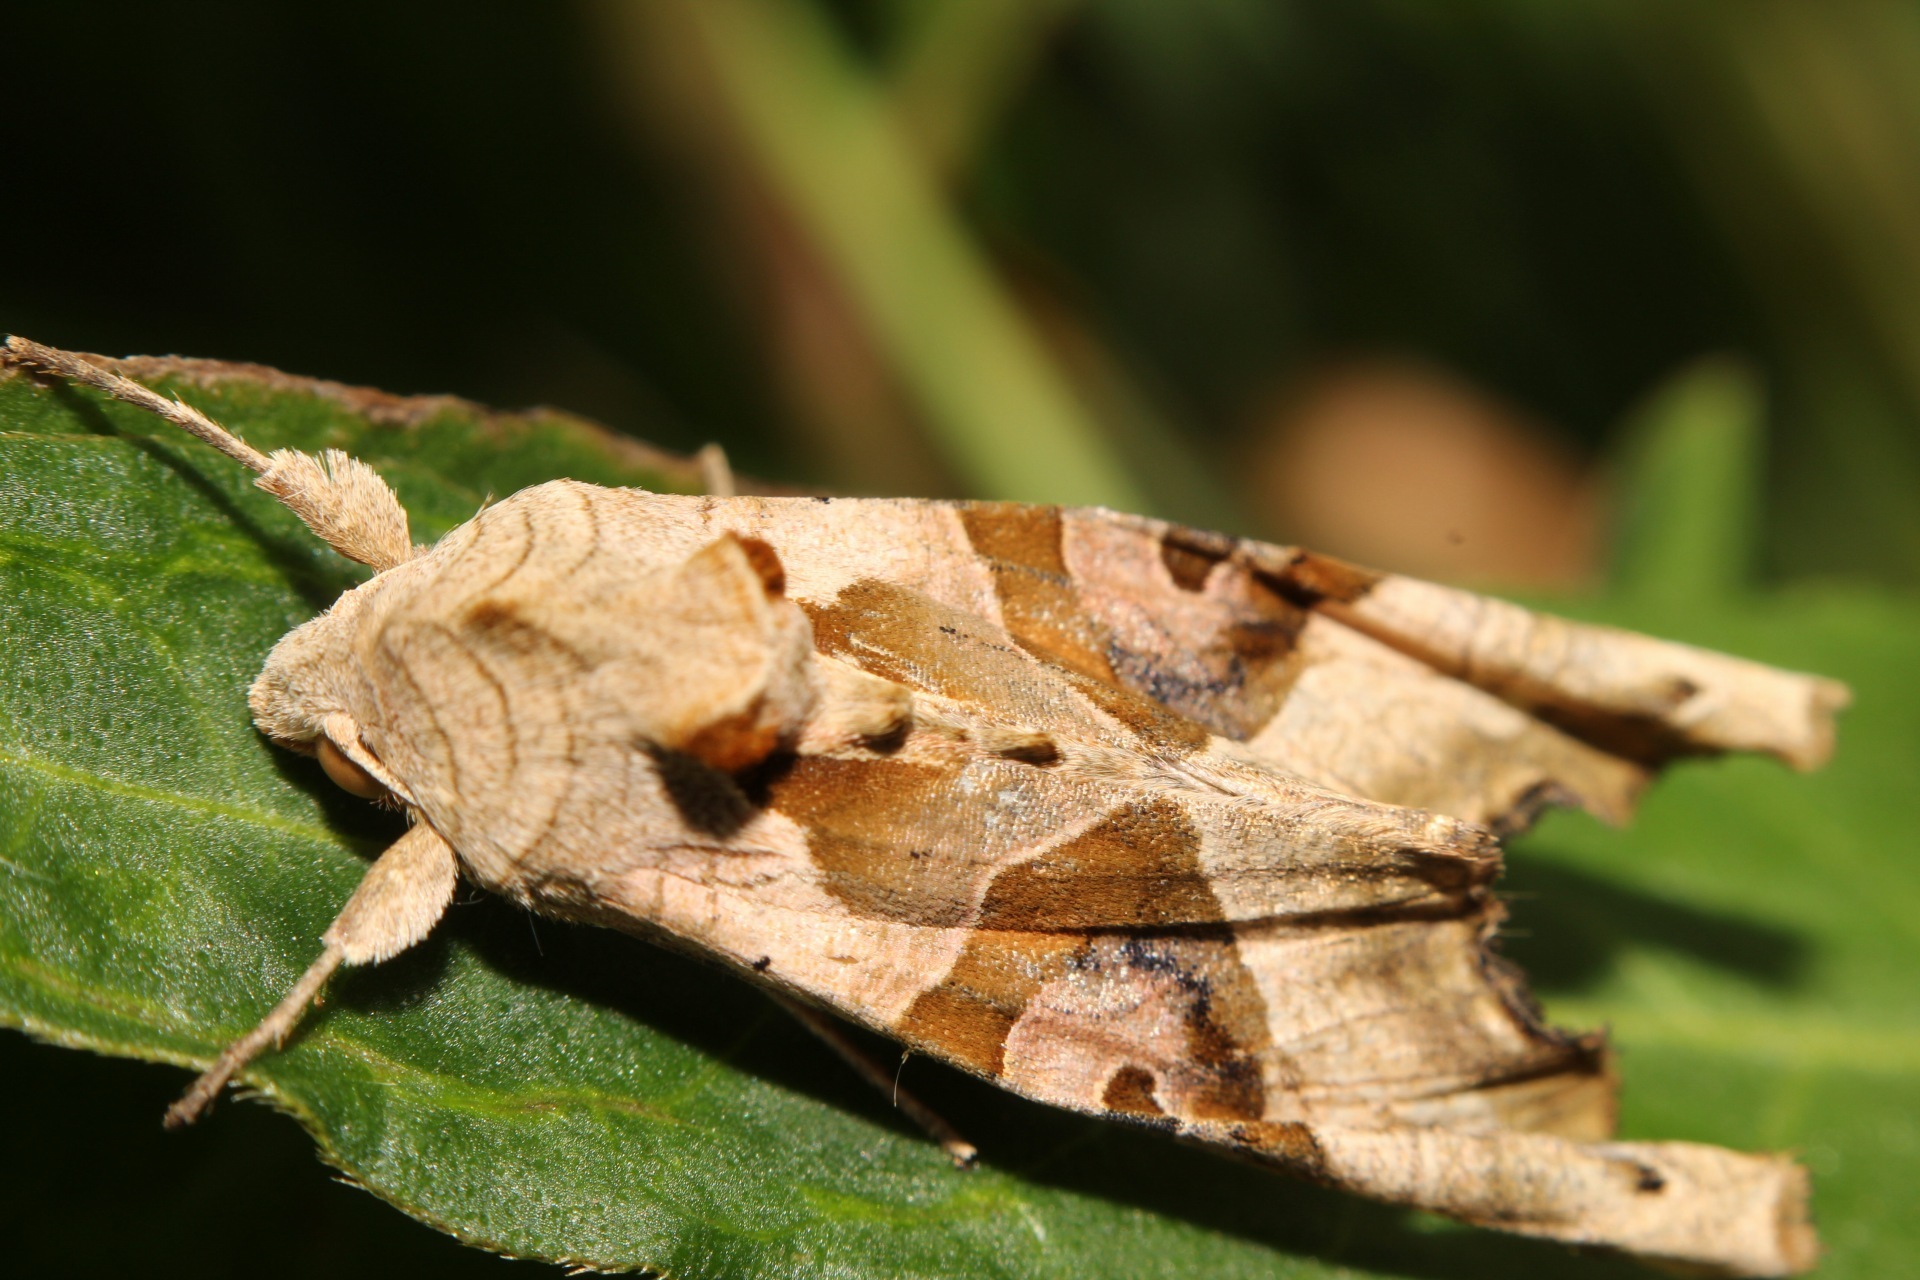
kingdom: Animalia
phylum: Arthropoda
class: Insecta
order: Lepidoptera
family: Noctuidae
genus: Phlogophora
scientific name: Phlogophora meticulosa
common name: Angle shades
